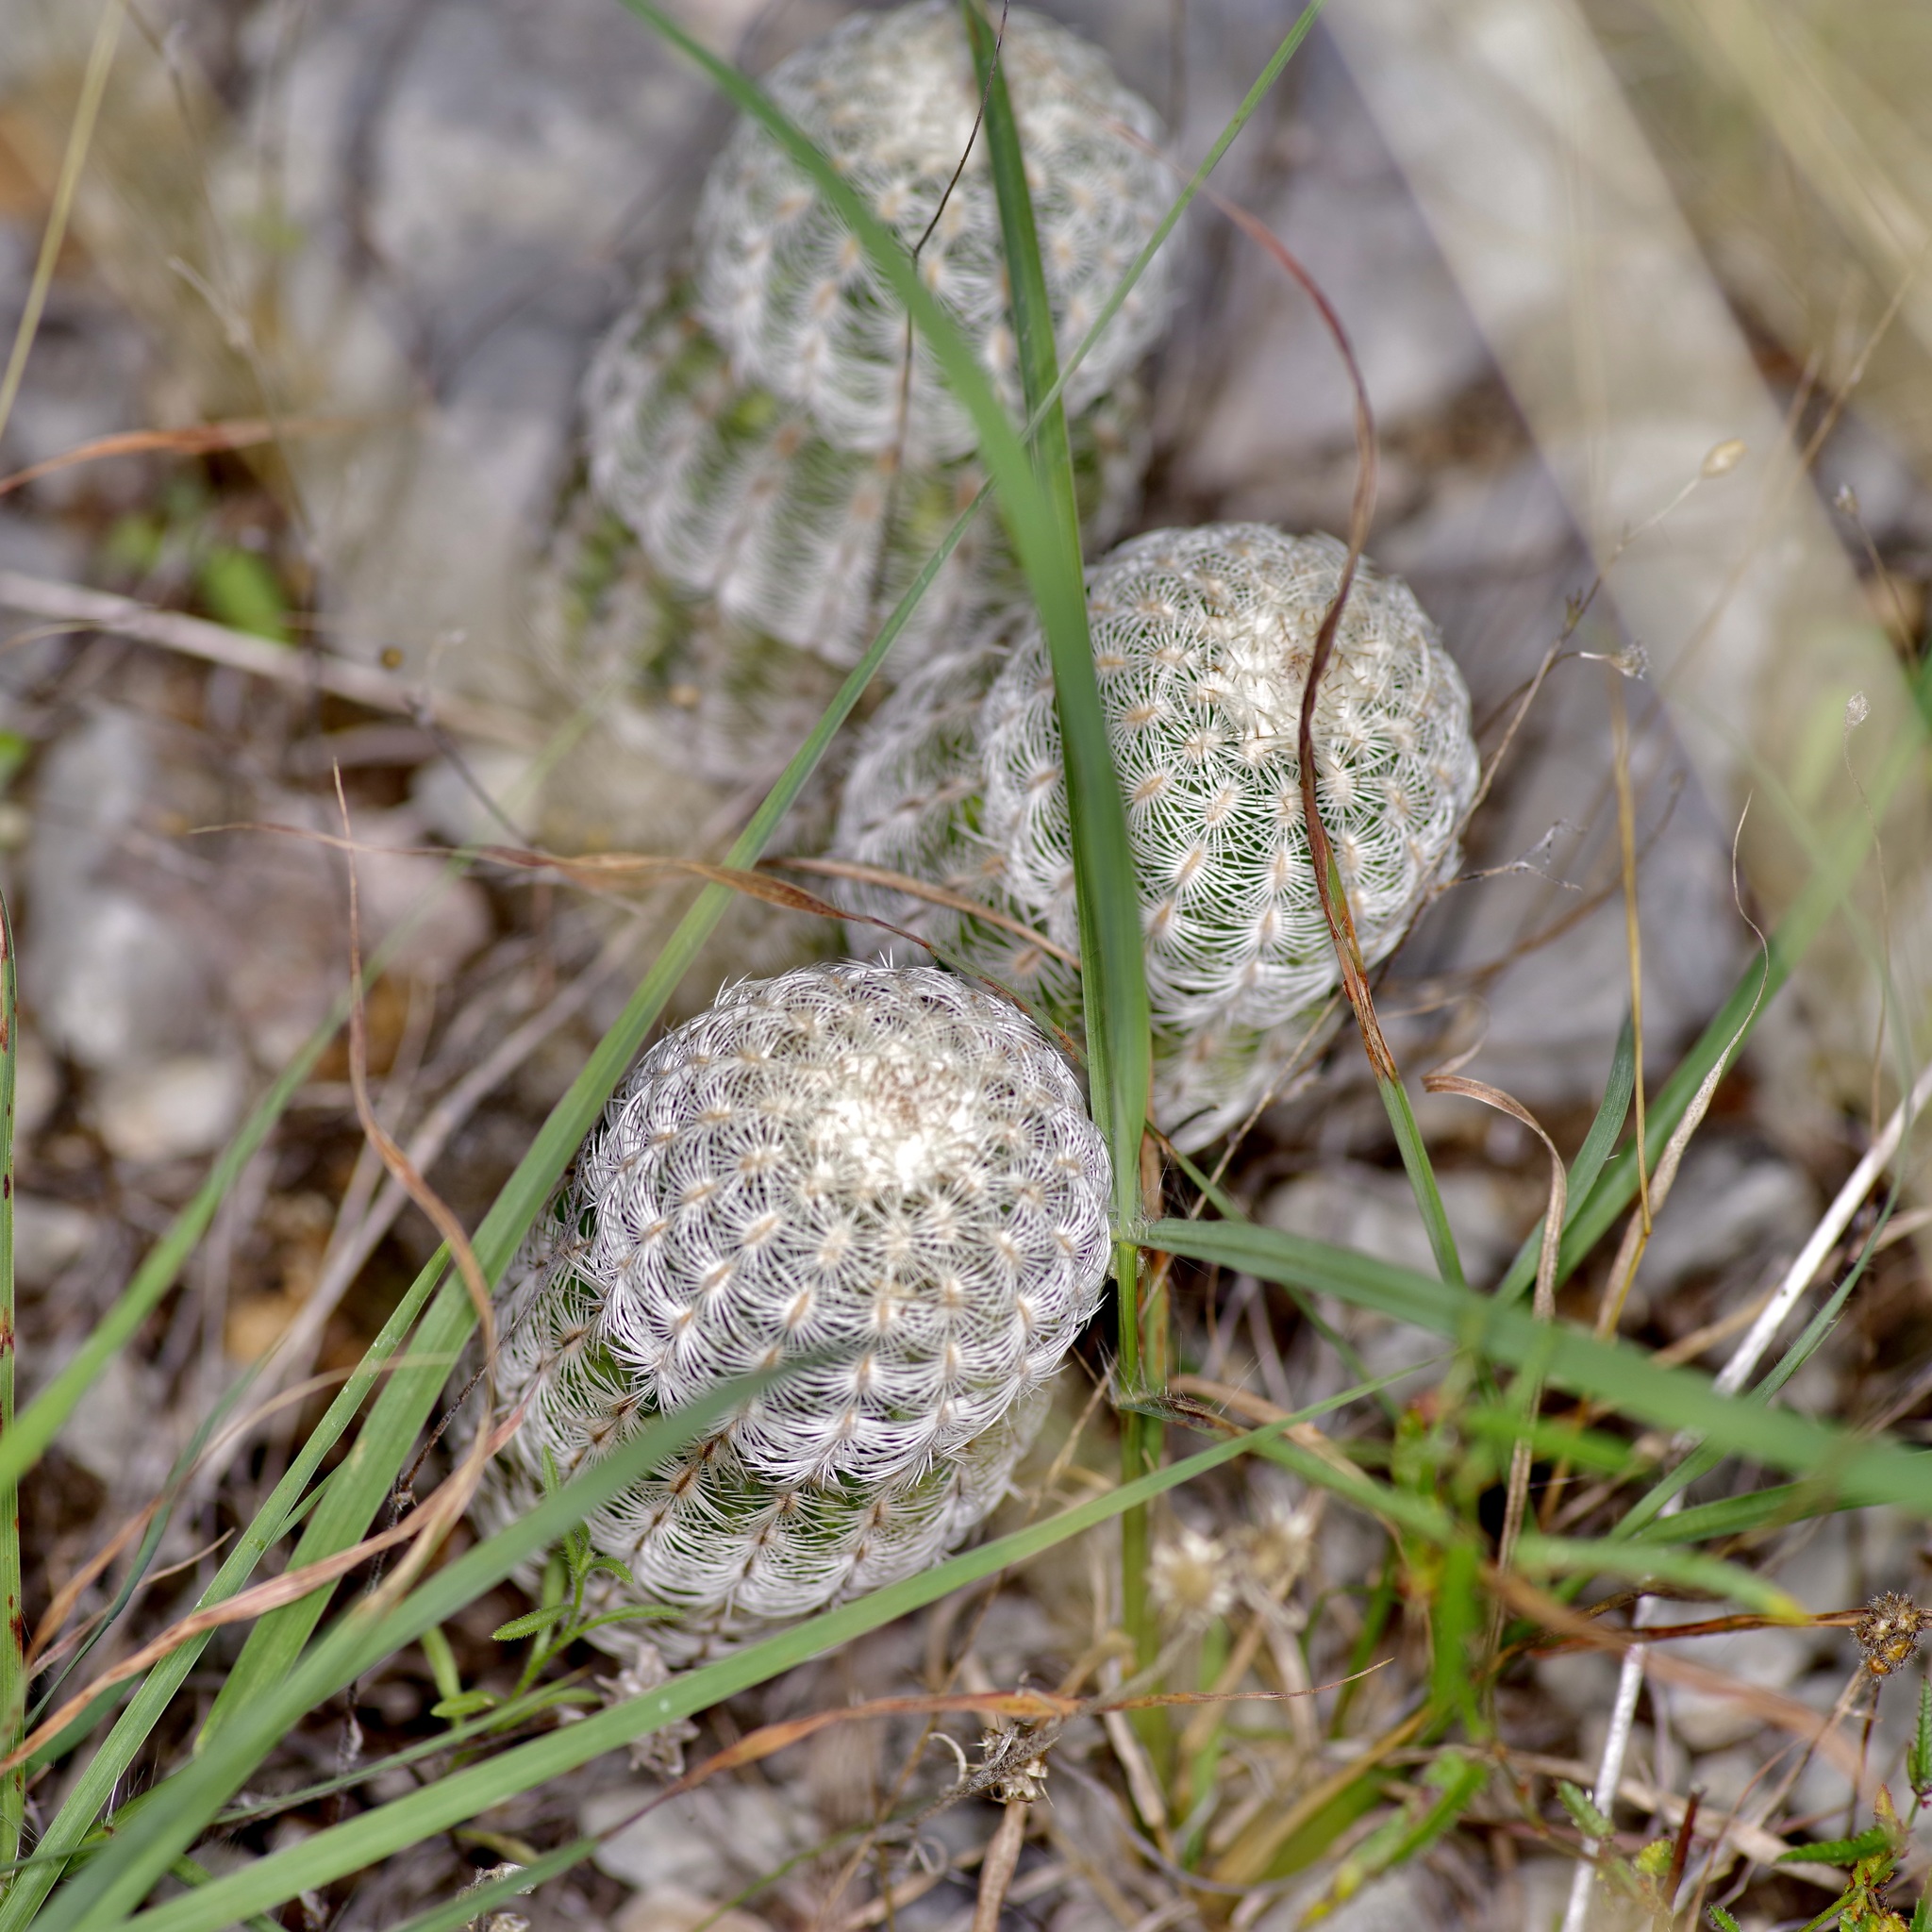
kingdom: Plantae
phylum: Tracheophyta
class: Magnoliopsida
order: Caryophyllales
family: Cactaceae
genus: Echinocereus
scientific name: Echinocereus reichenbachii
